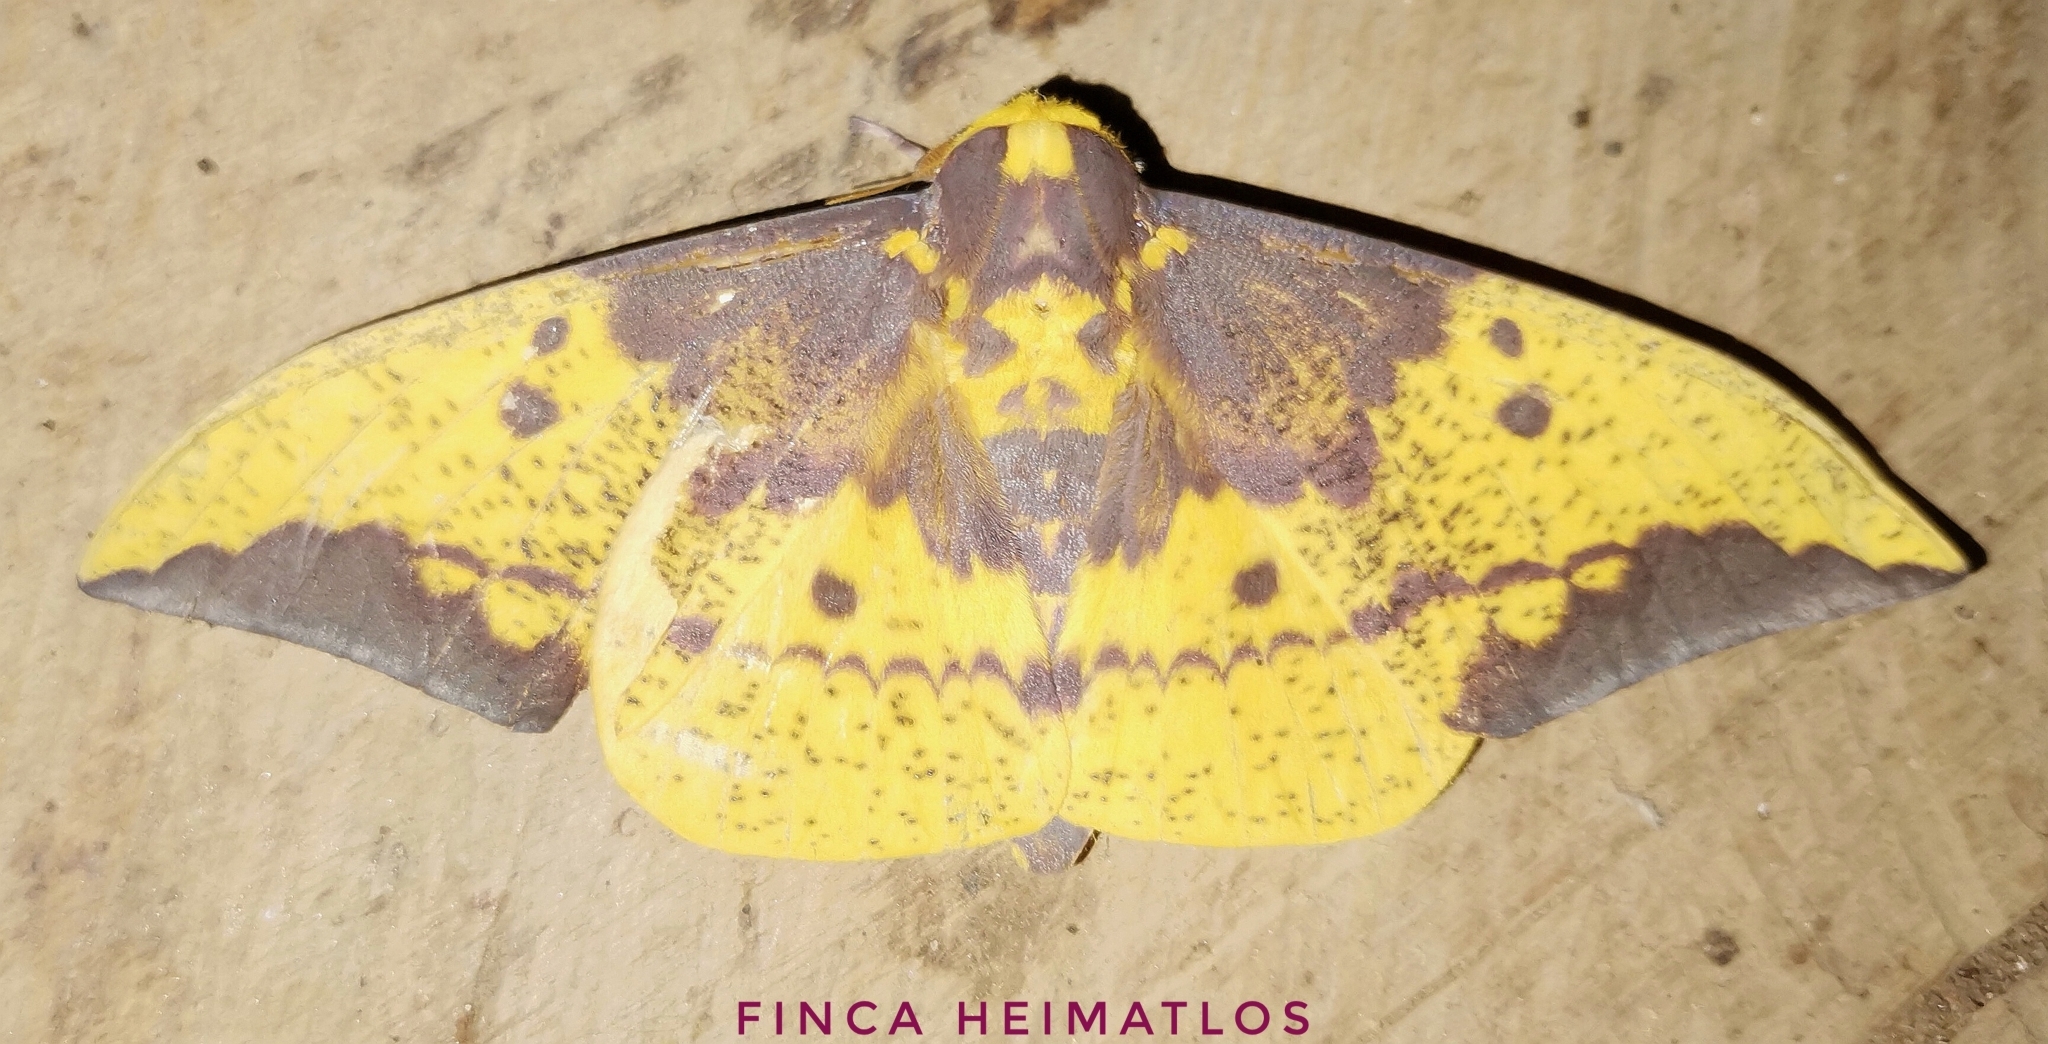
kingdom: Animalia
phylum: Arthropoda
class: Insecta
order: Lepidoptera
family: Saturniidae
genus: Eacles
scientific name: Eacles imperialis
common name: Imperial moth
